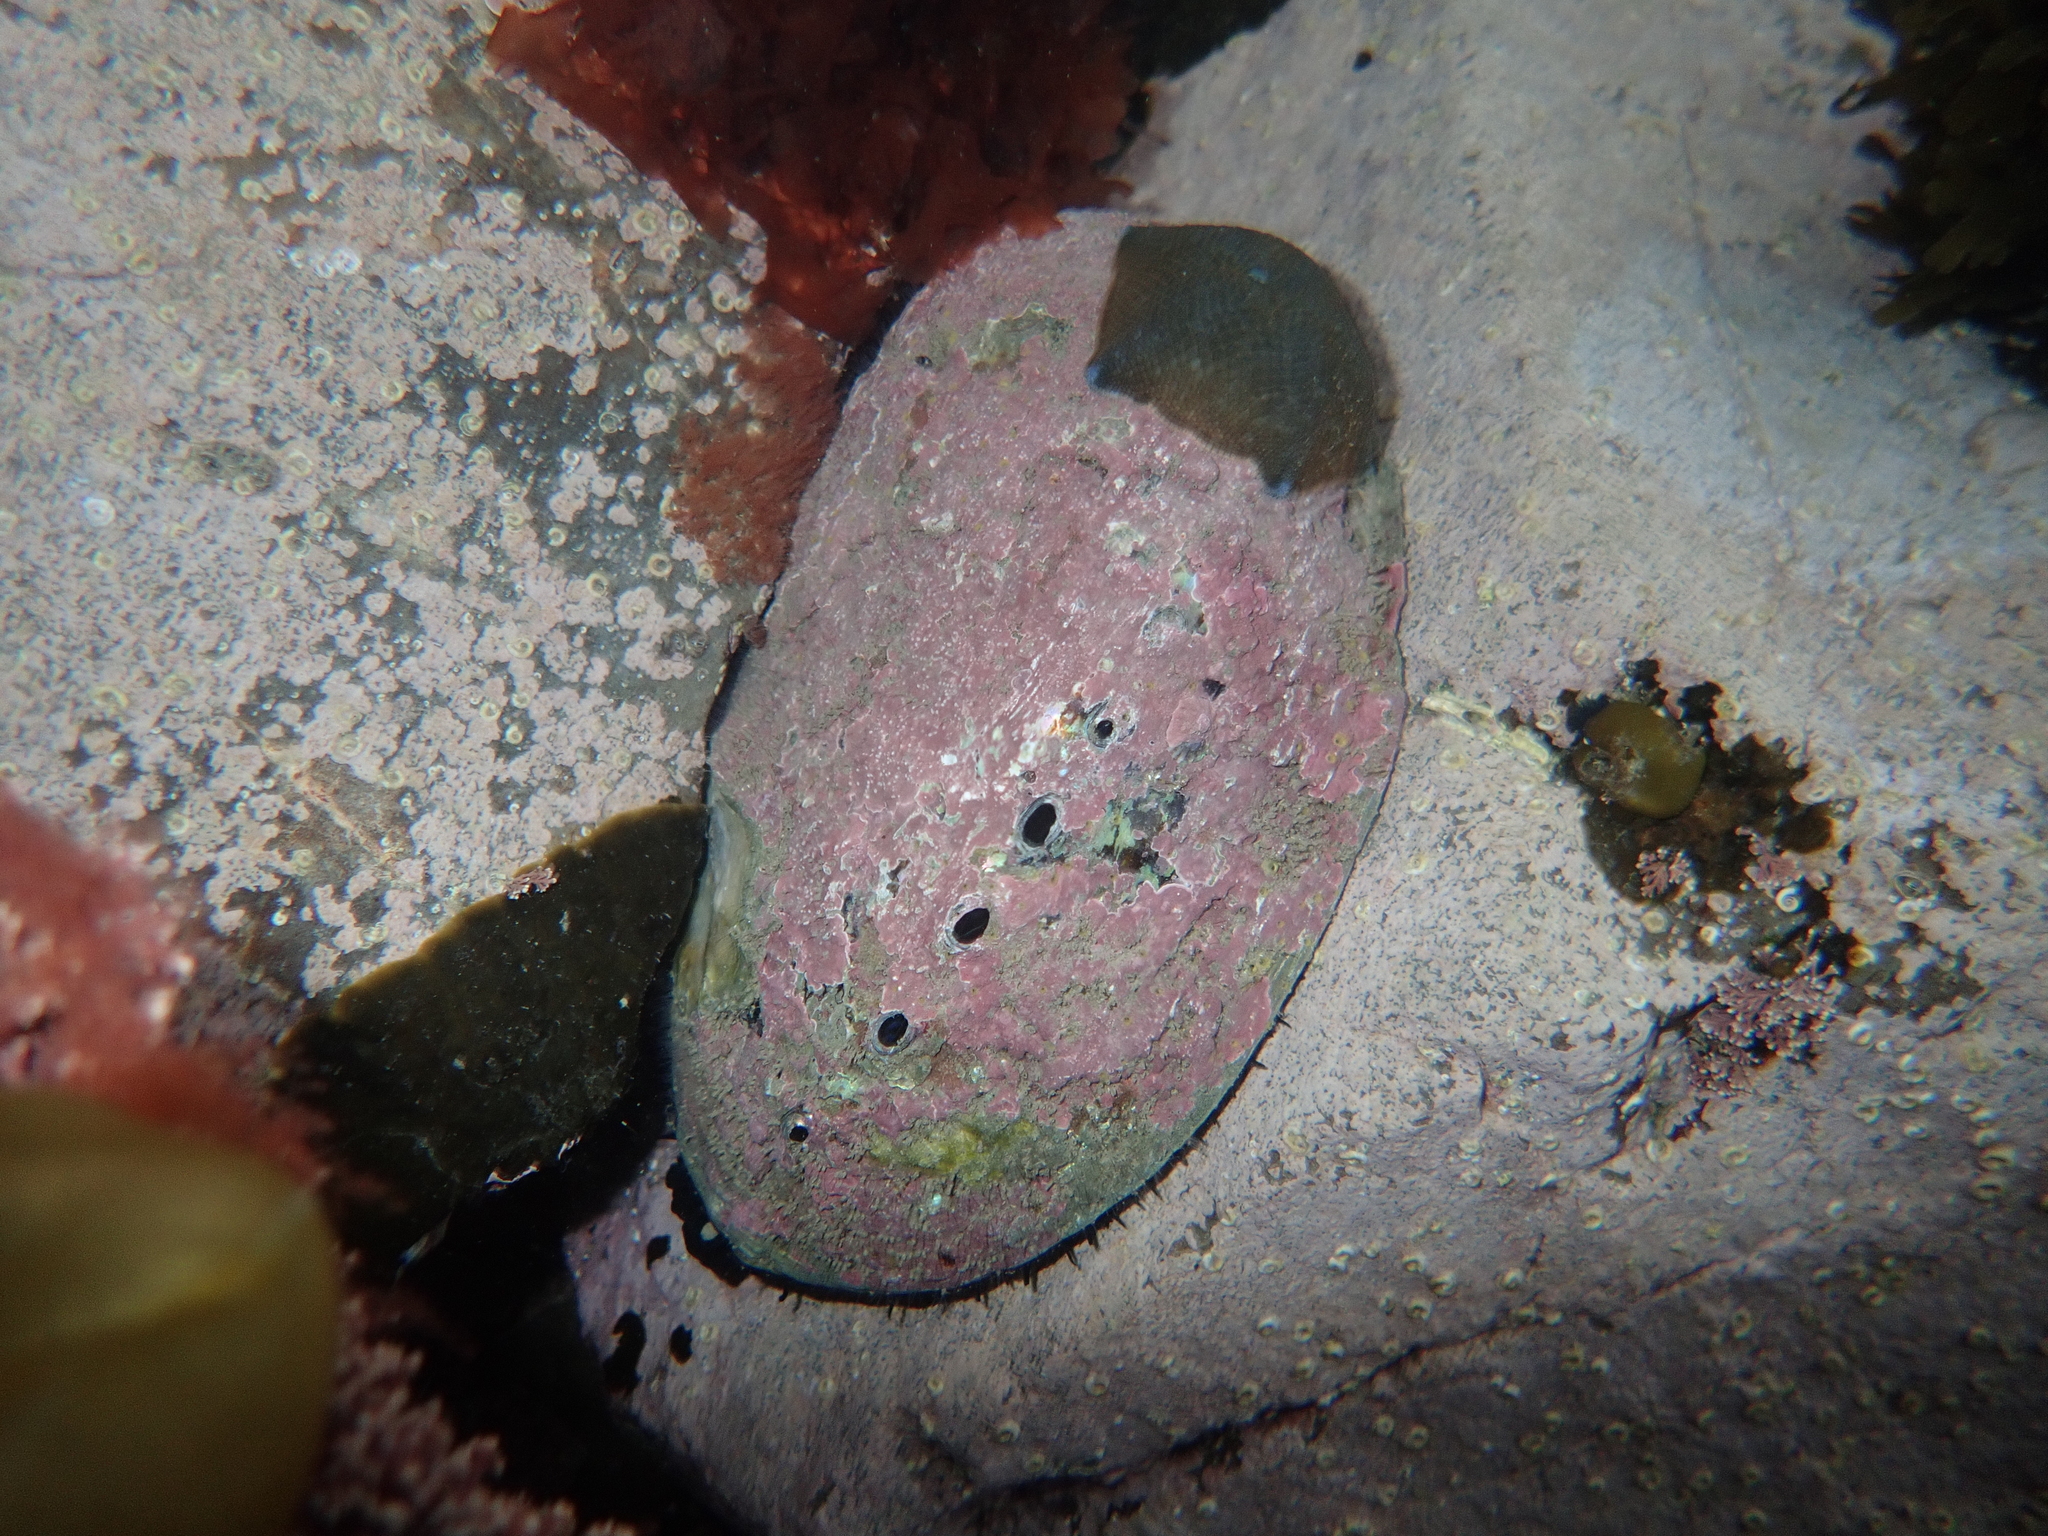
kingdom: Animalia
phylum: Mollusca
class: Gastropoda
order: Lepetellida
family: Haliotidae
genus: Haliotis
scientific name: Haliotis iris
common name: Abalone
